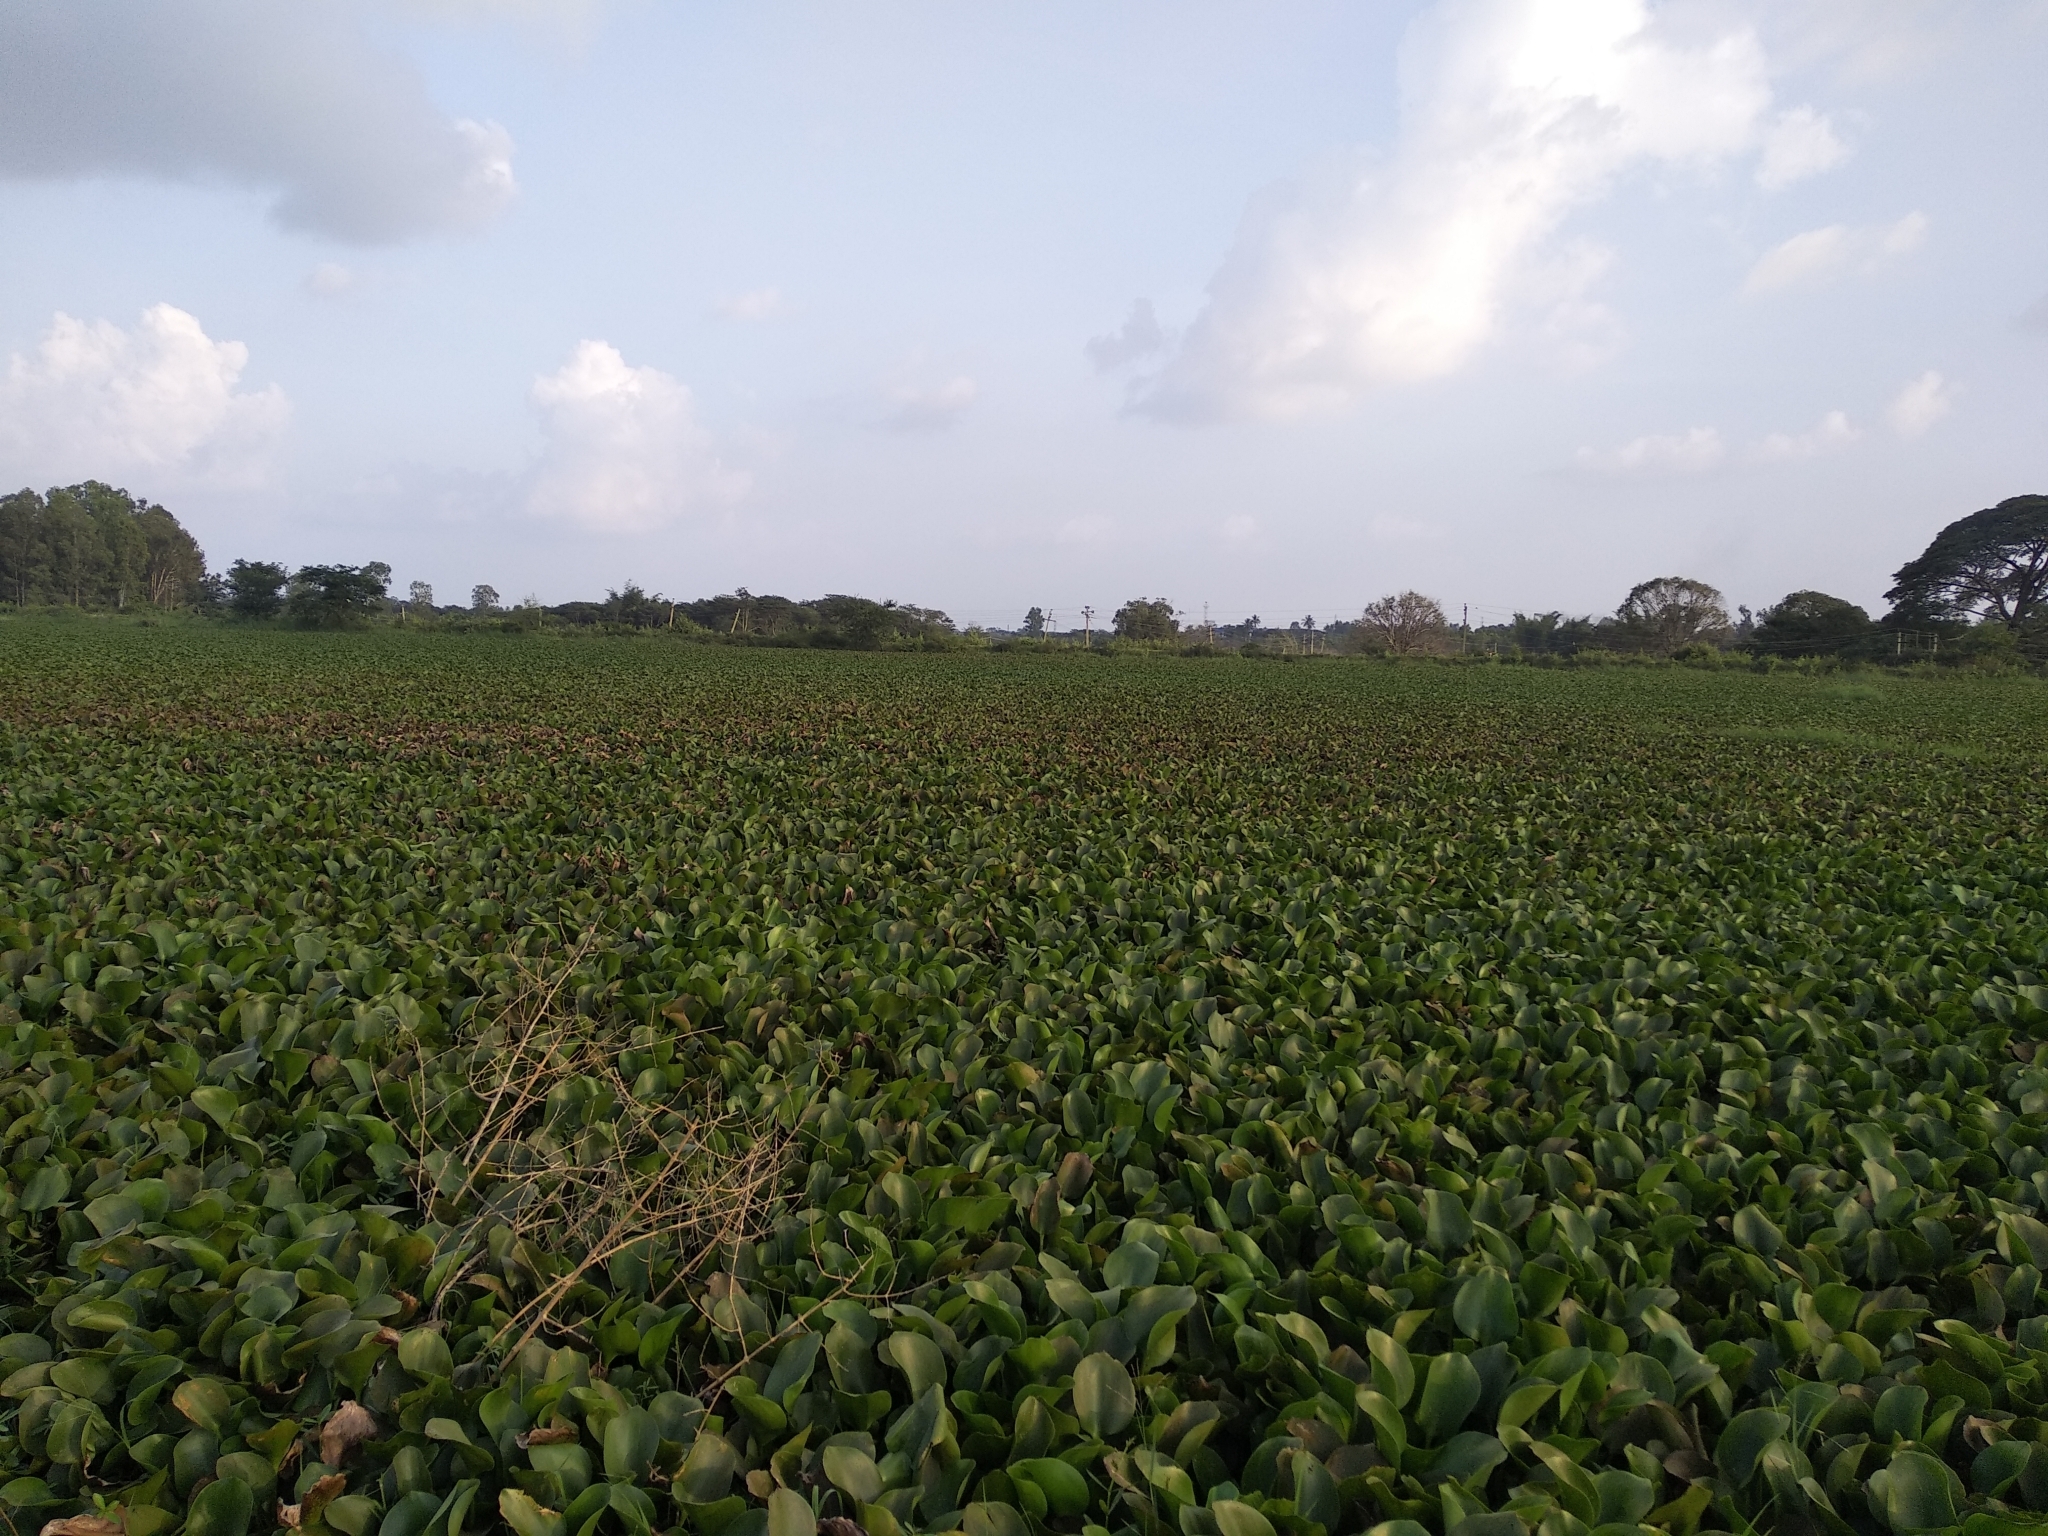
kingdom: Plantae
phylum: Tracheophyta
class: Liliopsida
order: Commelinales
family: Pontederiaceae
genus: Pontederia
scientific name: Pontederia crassipes
